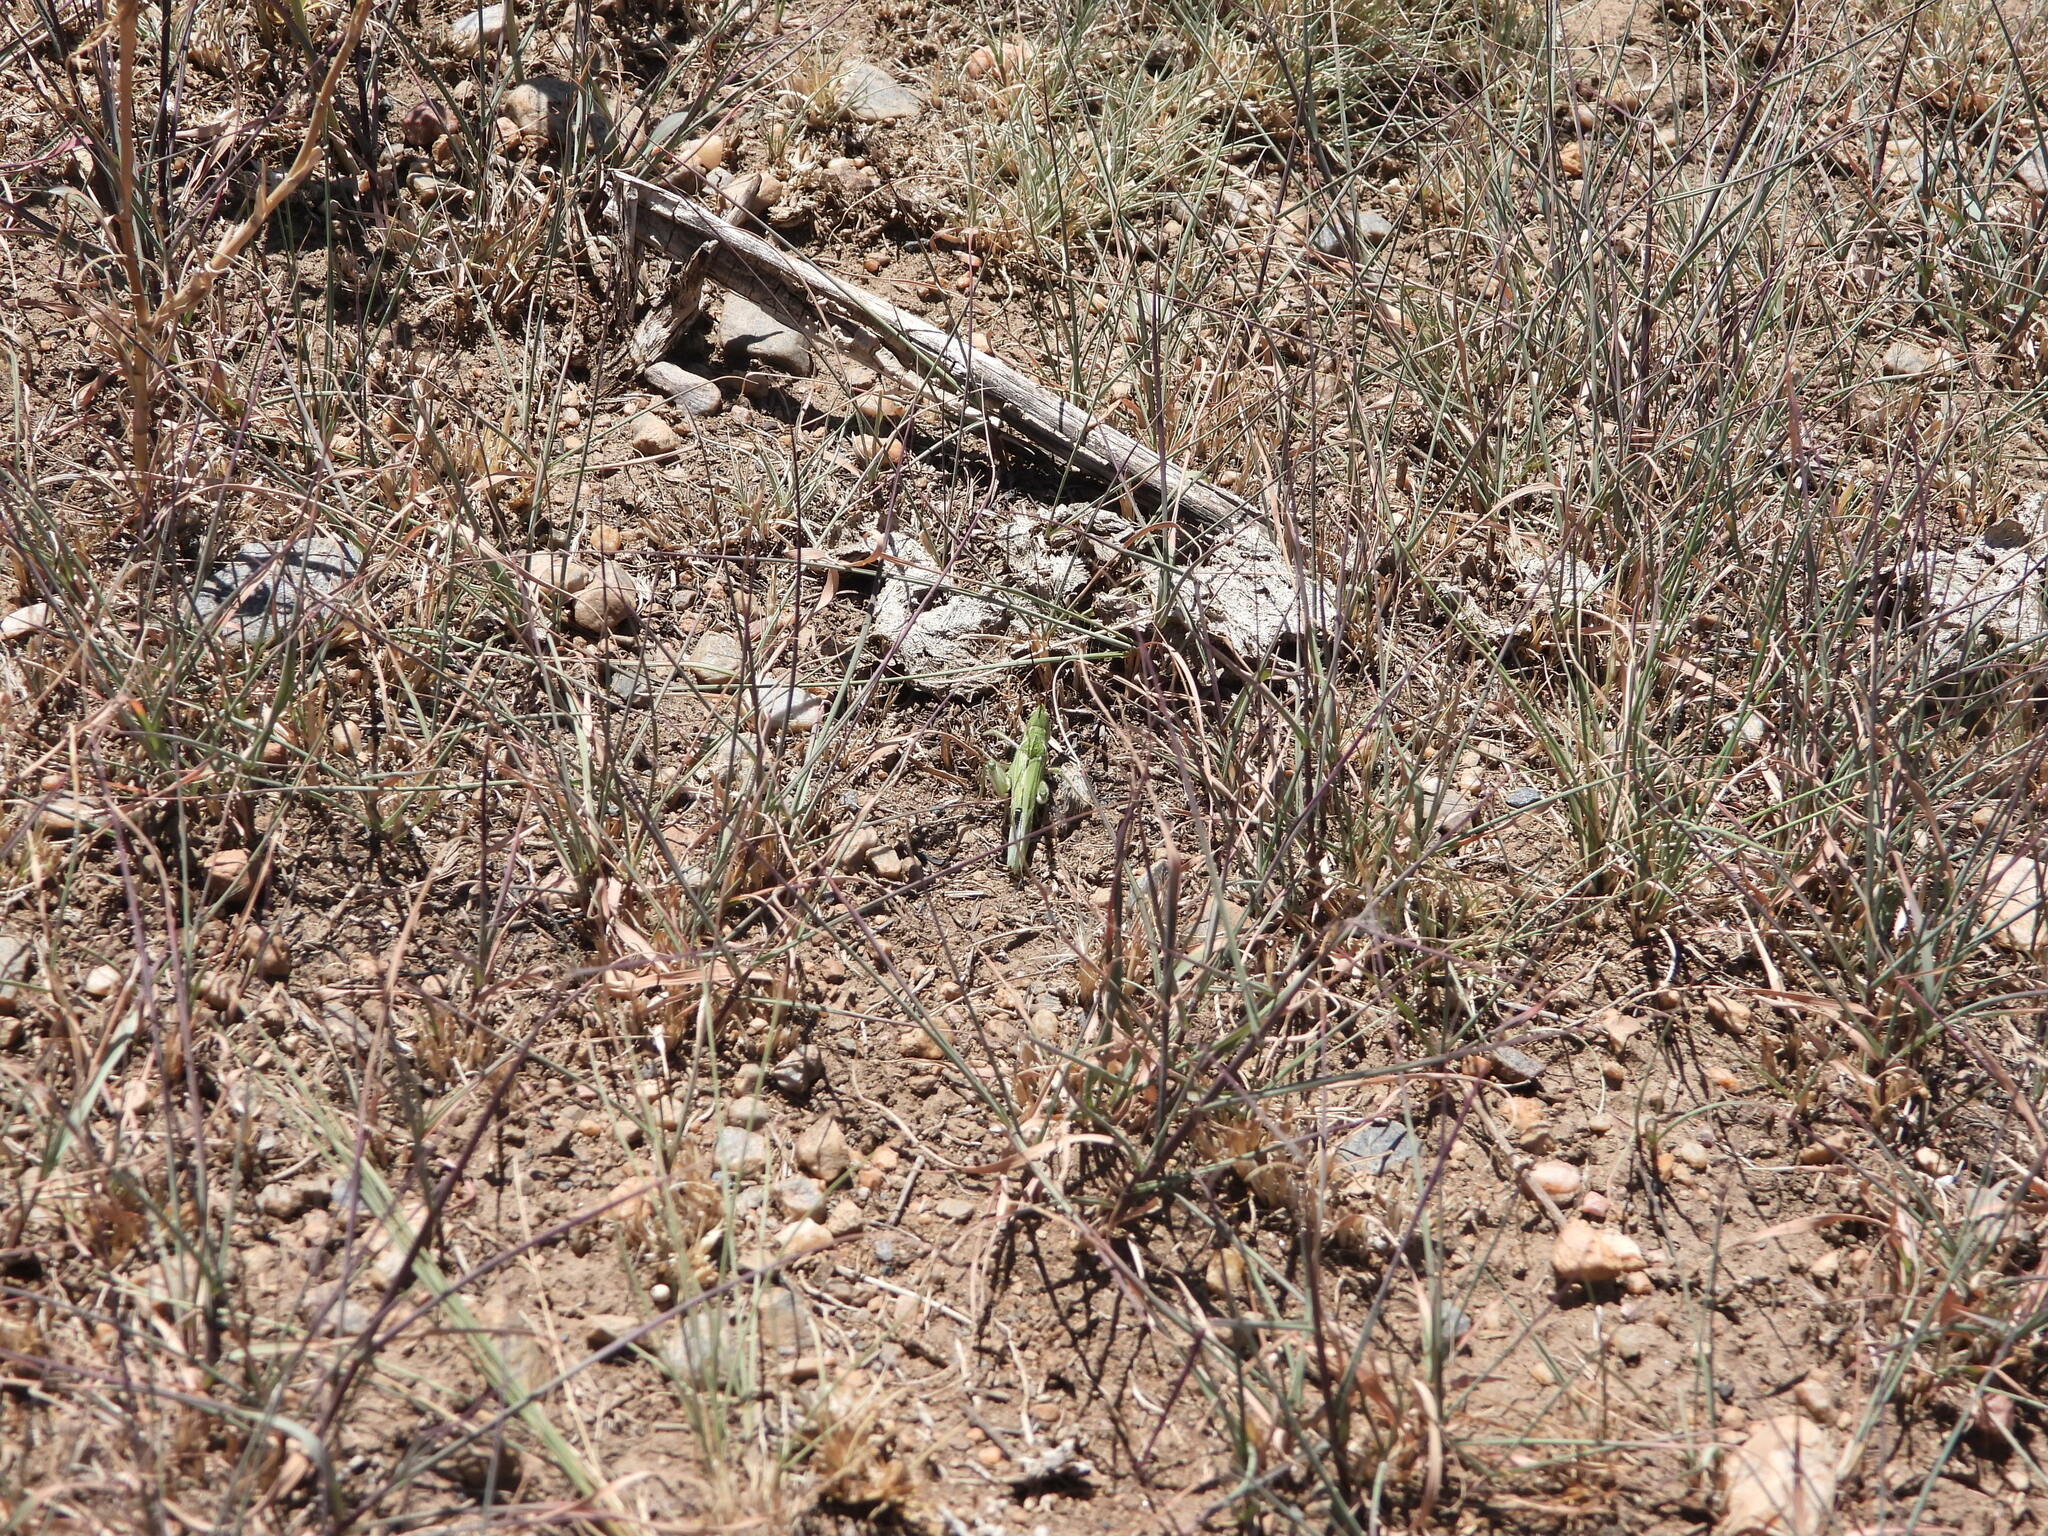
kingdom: Animalia
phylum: Arthropoda
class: Insecta
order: Orthoptera
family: Acrididae
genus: Acrolophitus
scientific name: Acrolophitus hirtipes
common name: Green fool grasshopper
